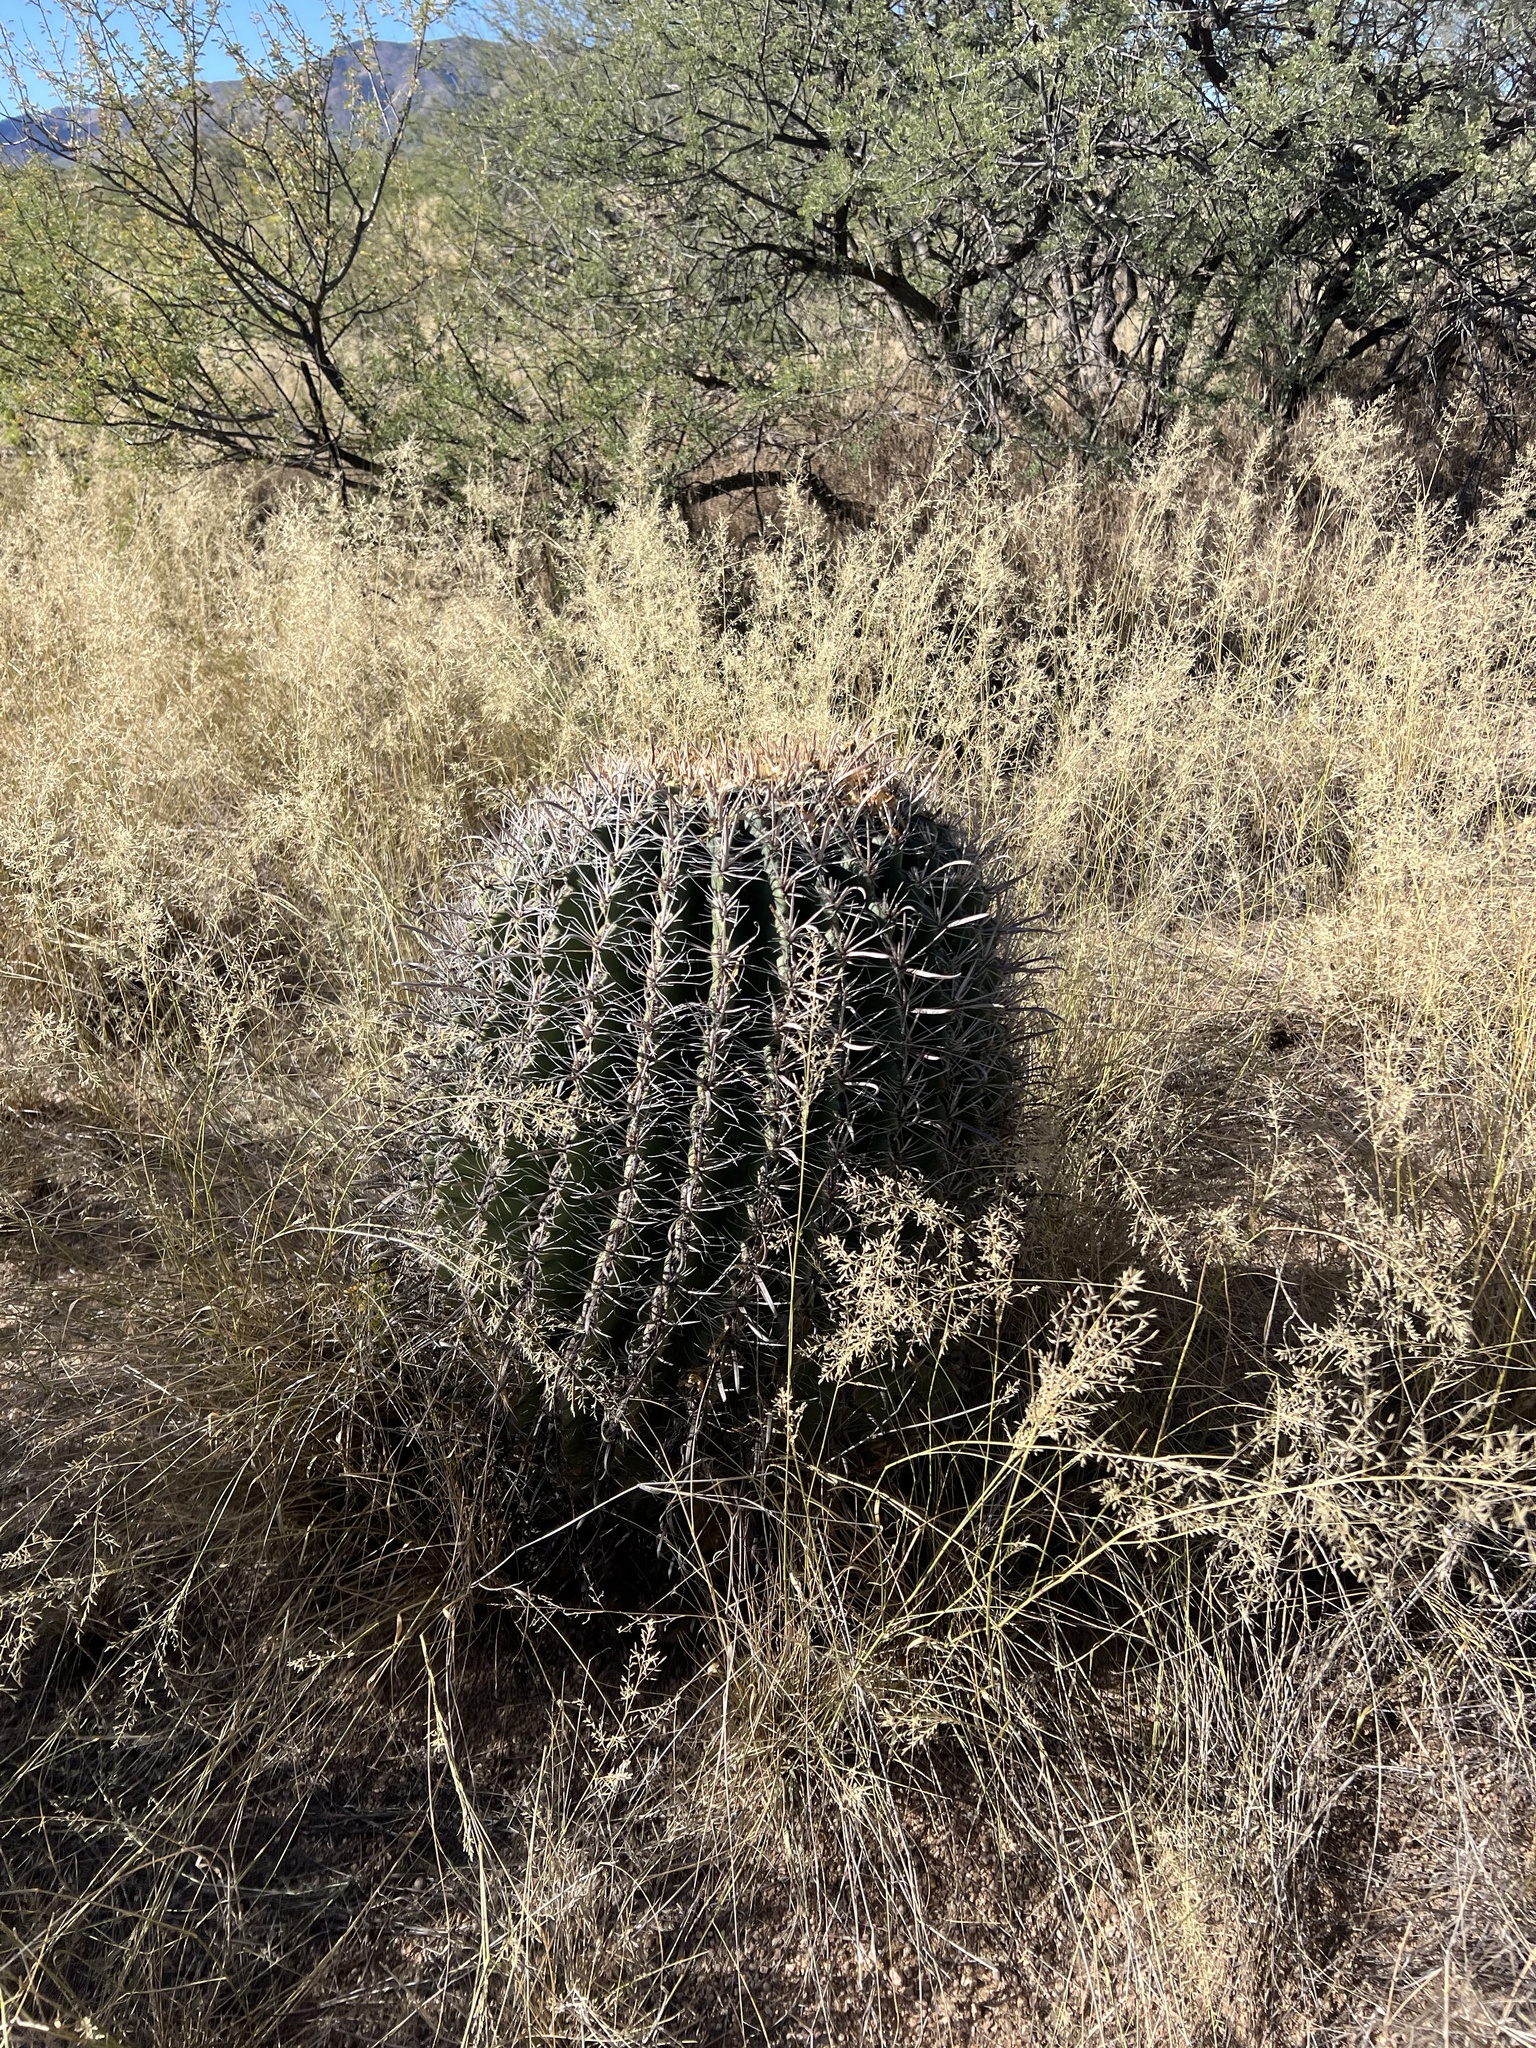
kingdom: Plantae
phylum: Tracheophyta
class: Magnoliopsida
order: Caryophyllales
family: Cactaceae
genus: Ferocactus
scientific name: Ferocactus wislizeni
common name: Candy barrel cactus
